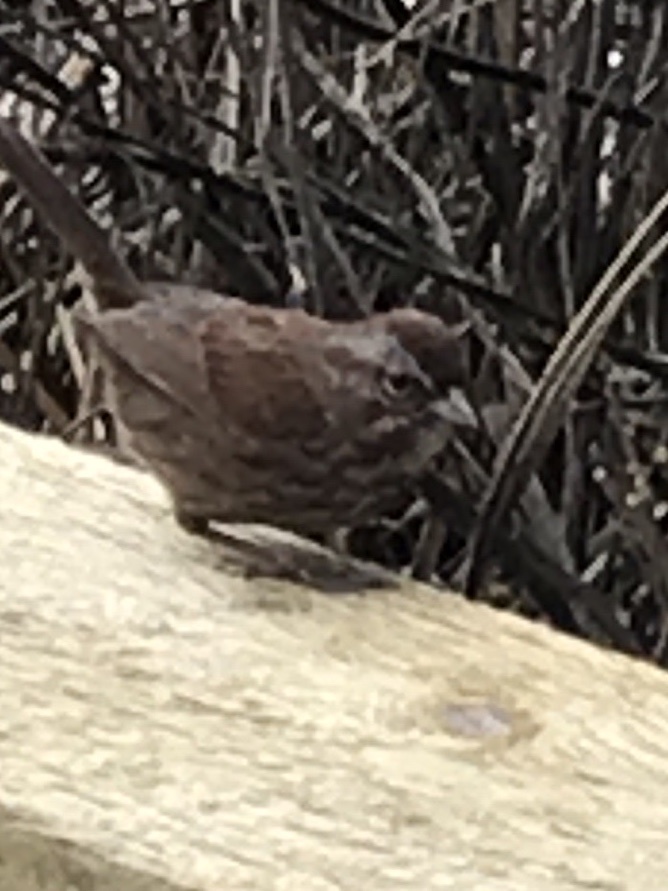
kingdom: Animalia
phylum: Chordata
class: Aves
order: Passeriformes
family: Passerellidae
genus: Melospiza
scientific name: Melospiza melodia
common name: Song sparrow
